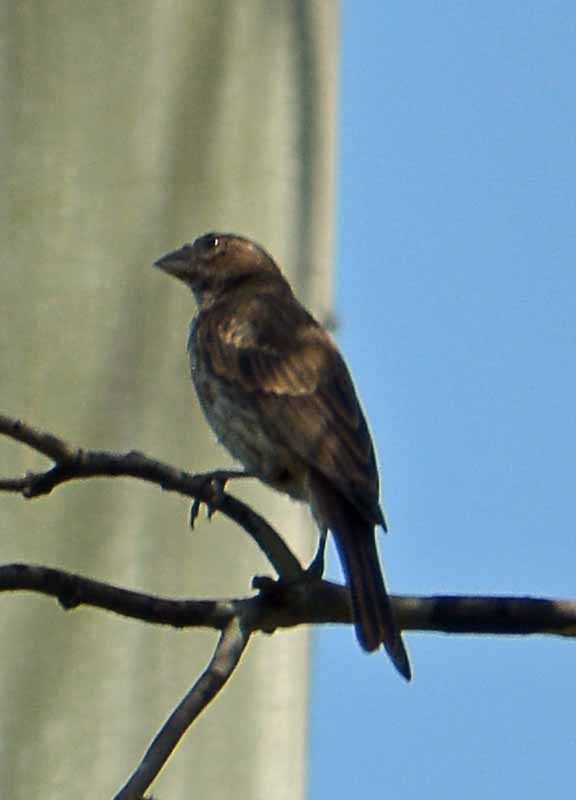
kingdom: Animalia
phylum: Chordata
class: Aves
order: Passeriformes
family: Fringillidae
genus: Haemorhous
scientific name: Haemorhous mexicanus
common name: House finch
